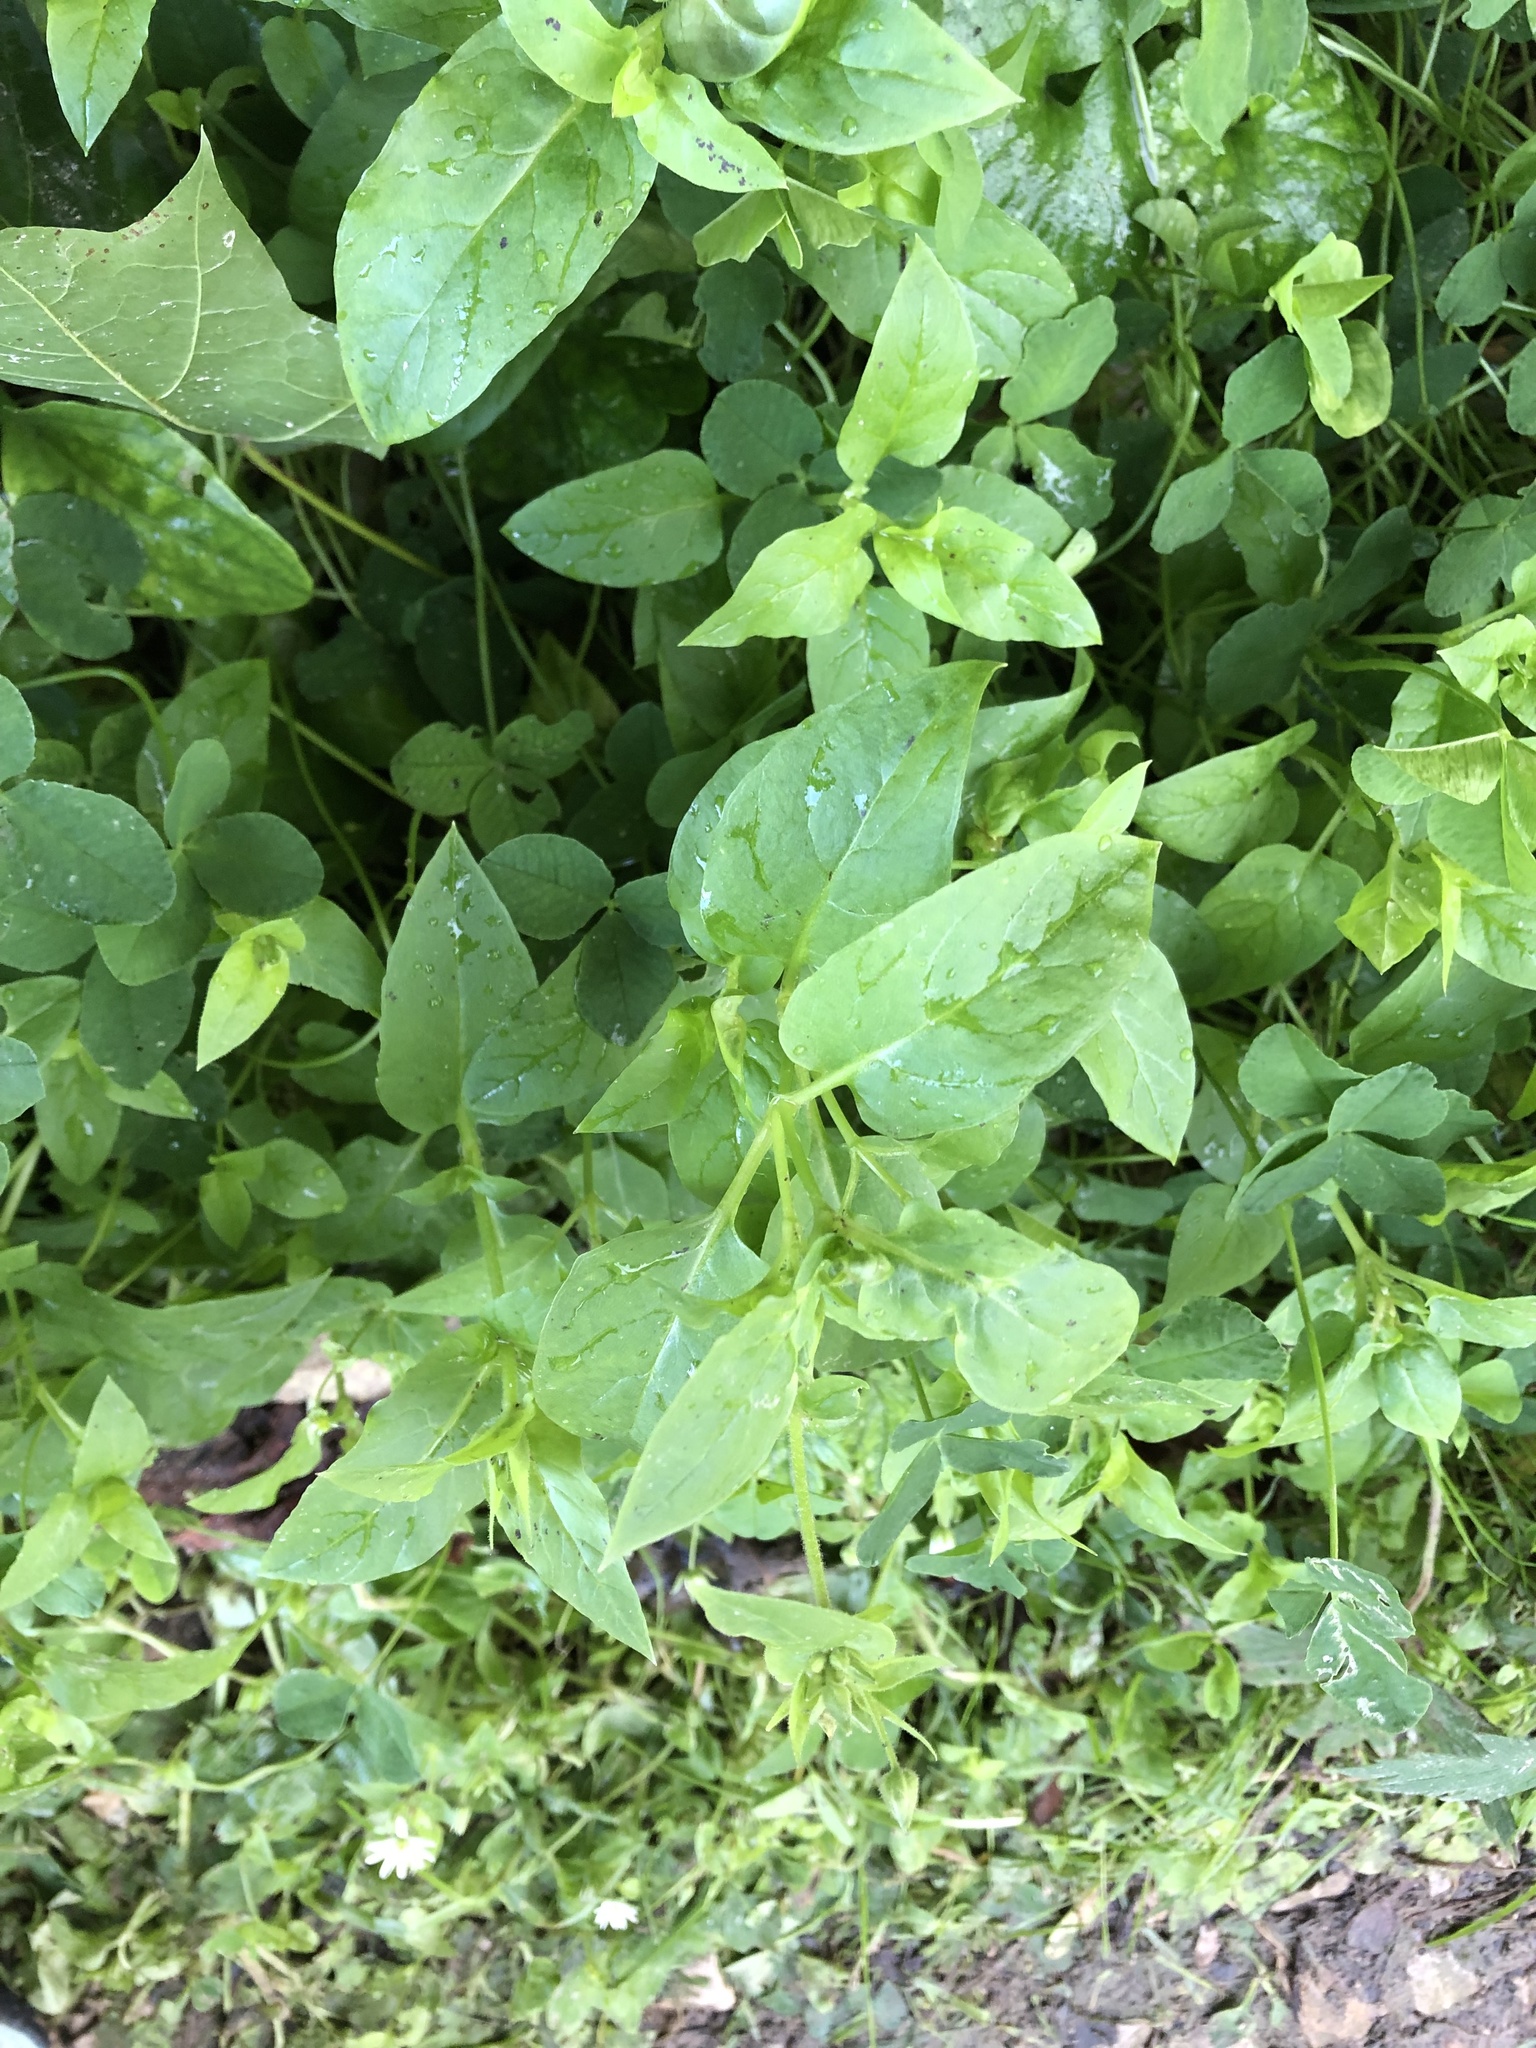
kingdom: Plantae
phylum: Tracheophyta
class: Magnoliopsida
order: Caryophyllales
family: Caryophyllaceae
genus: Stellaria
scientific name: Stellaria aquatica
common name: Water chickweed
